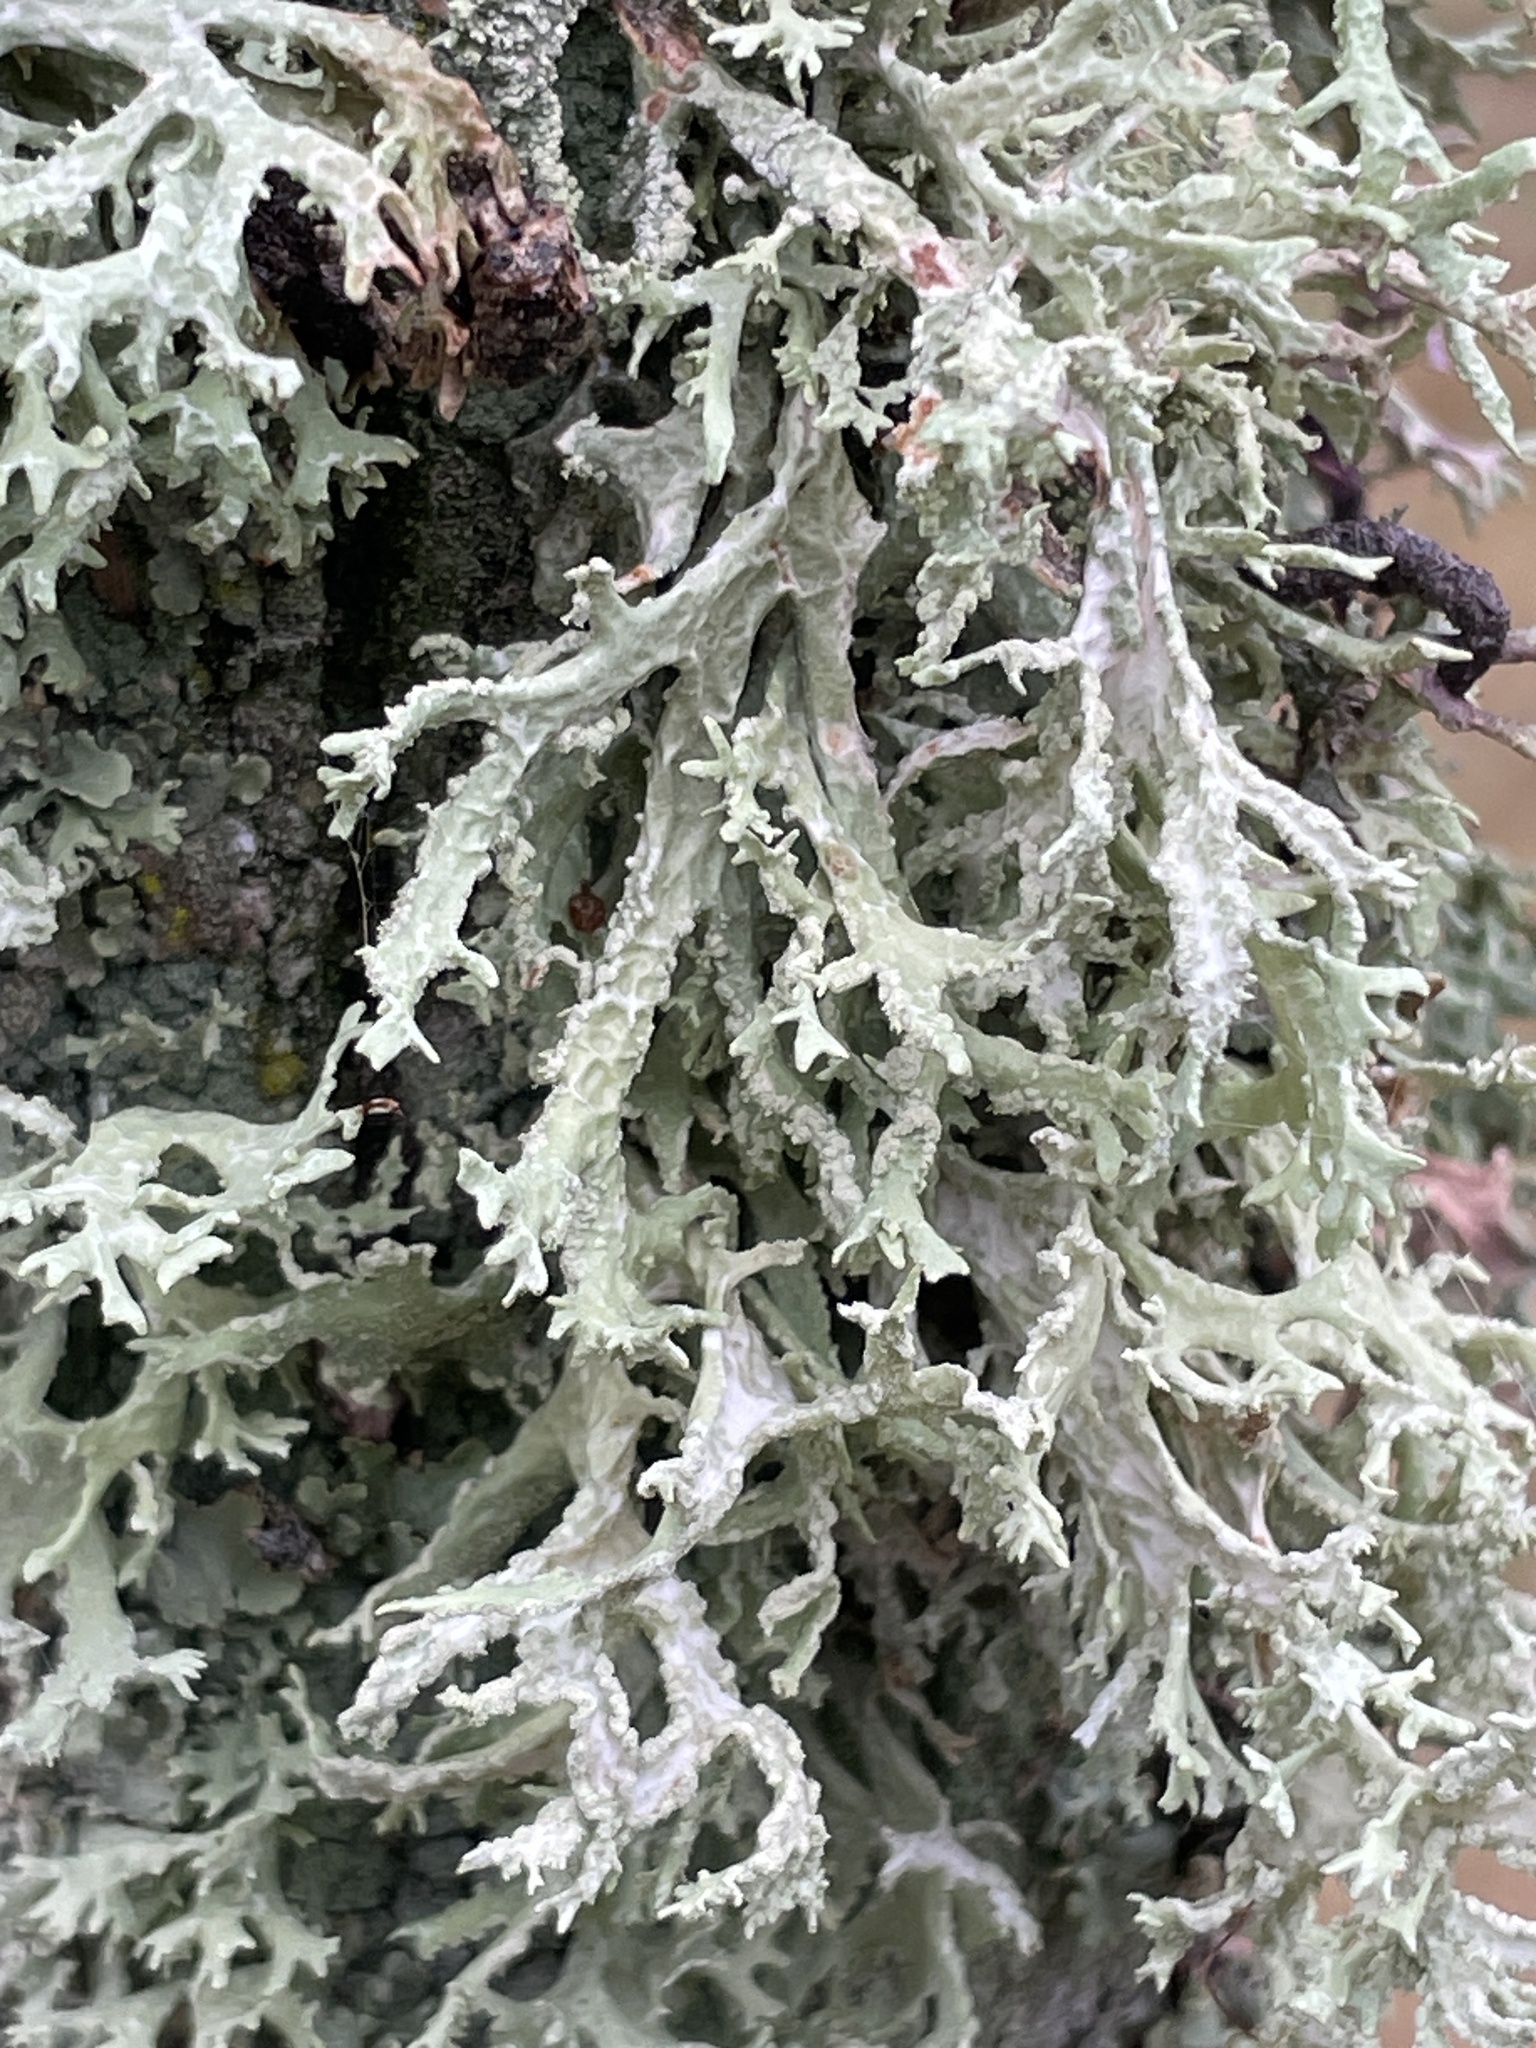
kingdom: Fungi
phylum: Ascomycota
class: Lecanoromycetes
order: Lecanorales
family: Parmeliaceae
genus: Evernia
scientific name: Evernia prunastri
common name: Oak moss
